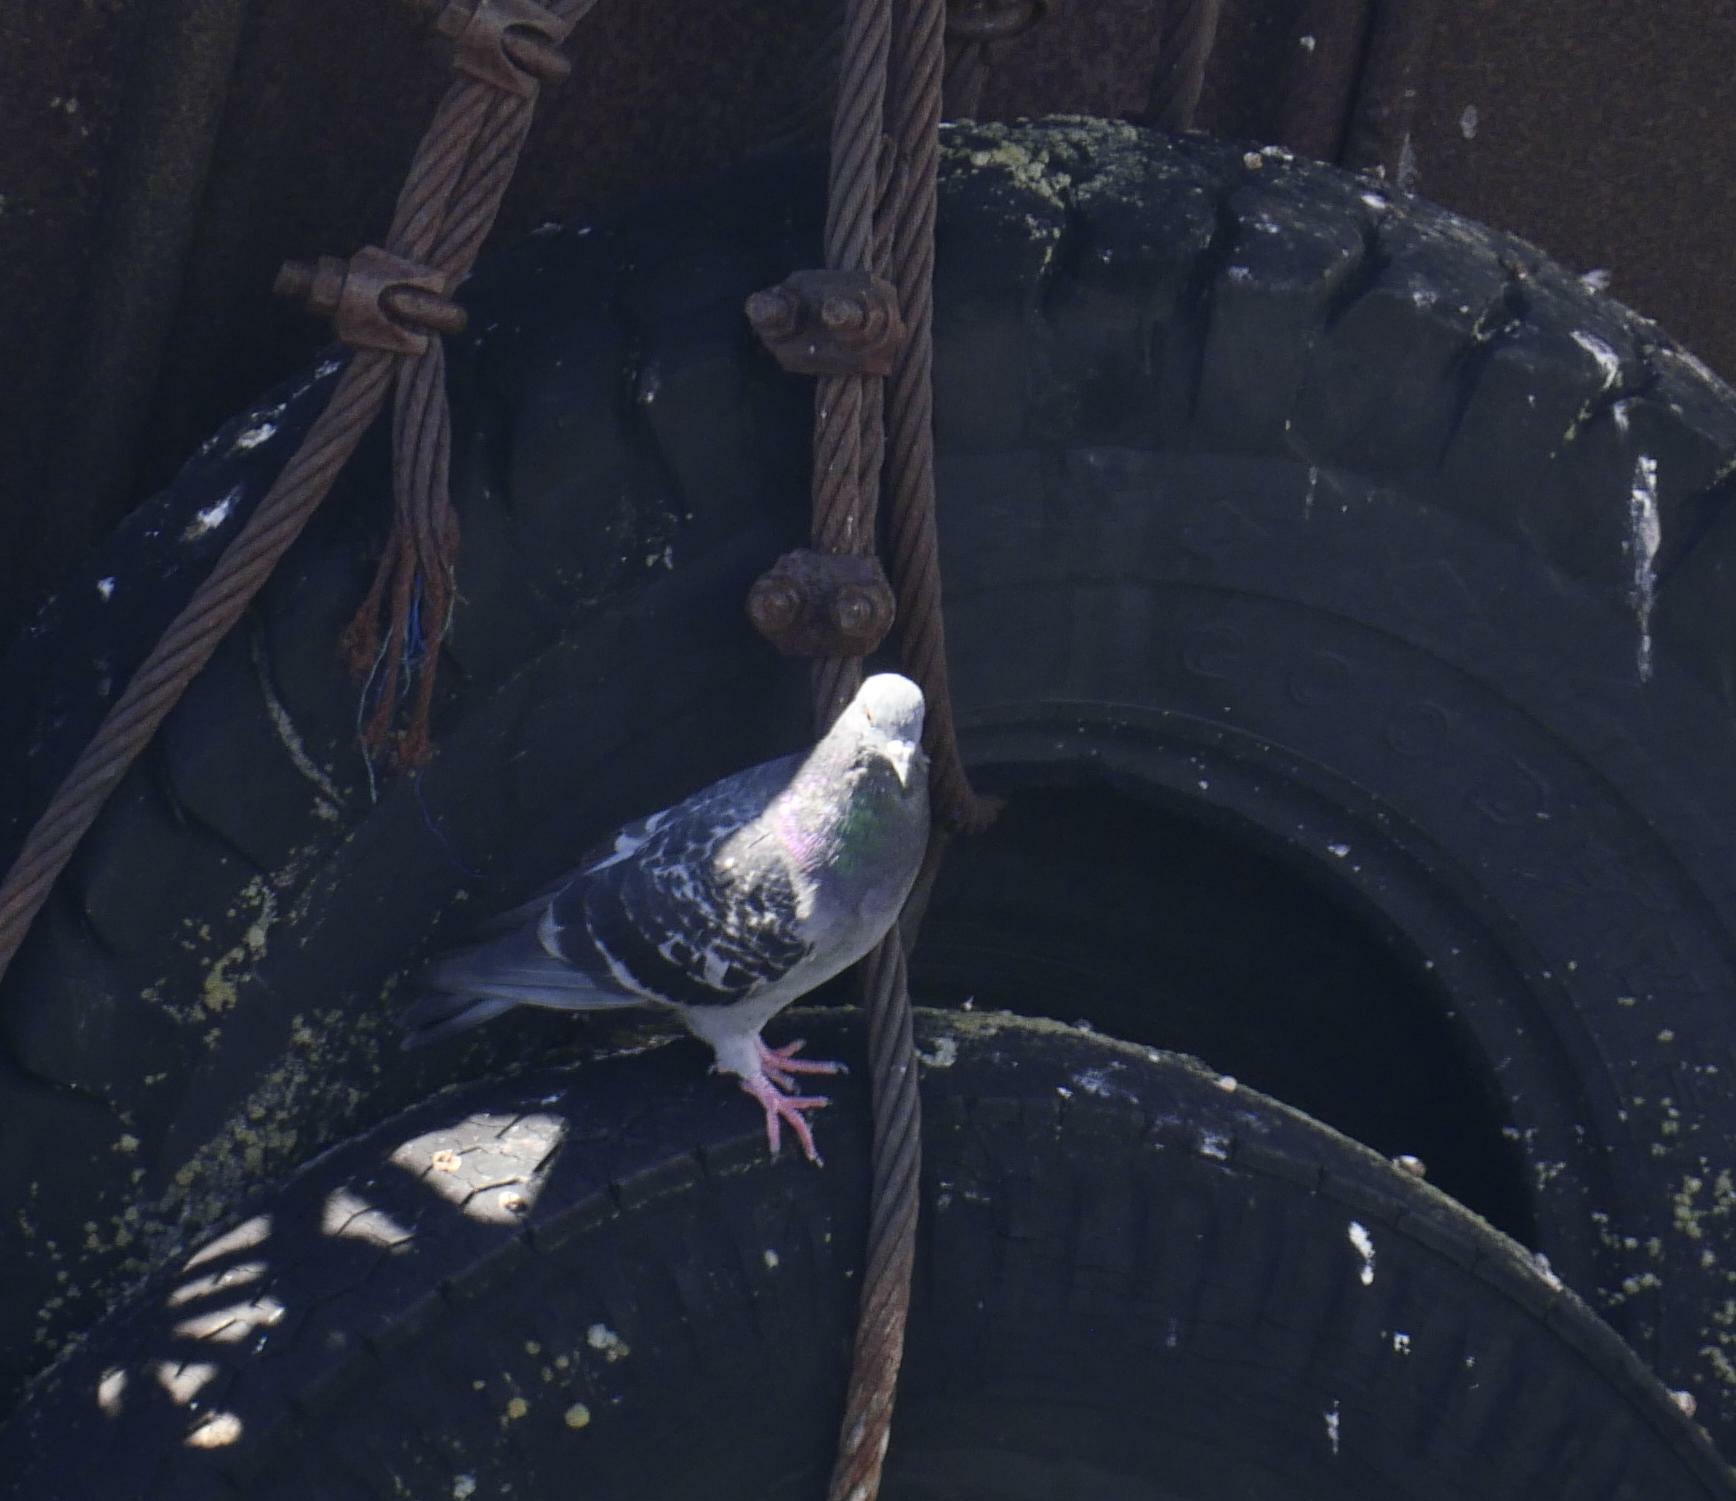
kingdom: Animalia
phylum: Chordata
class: Aves
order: Columbiformes
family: Columbidae
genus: Columba
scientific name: Columba livia
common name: Rock pigeon
